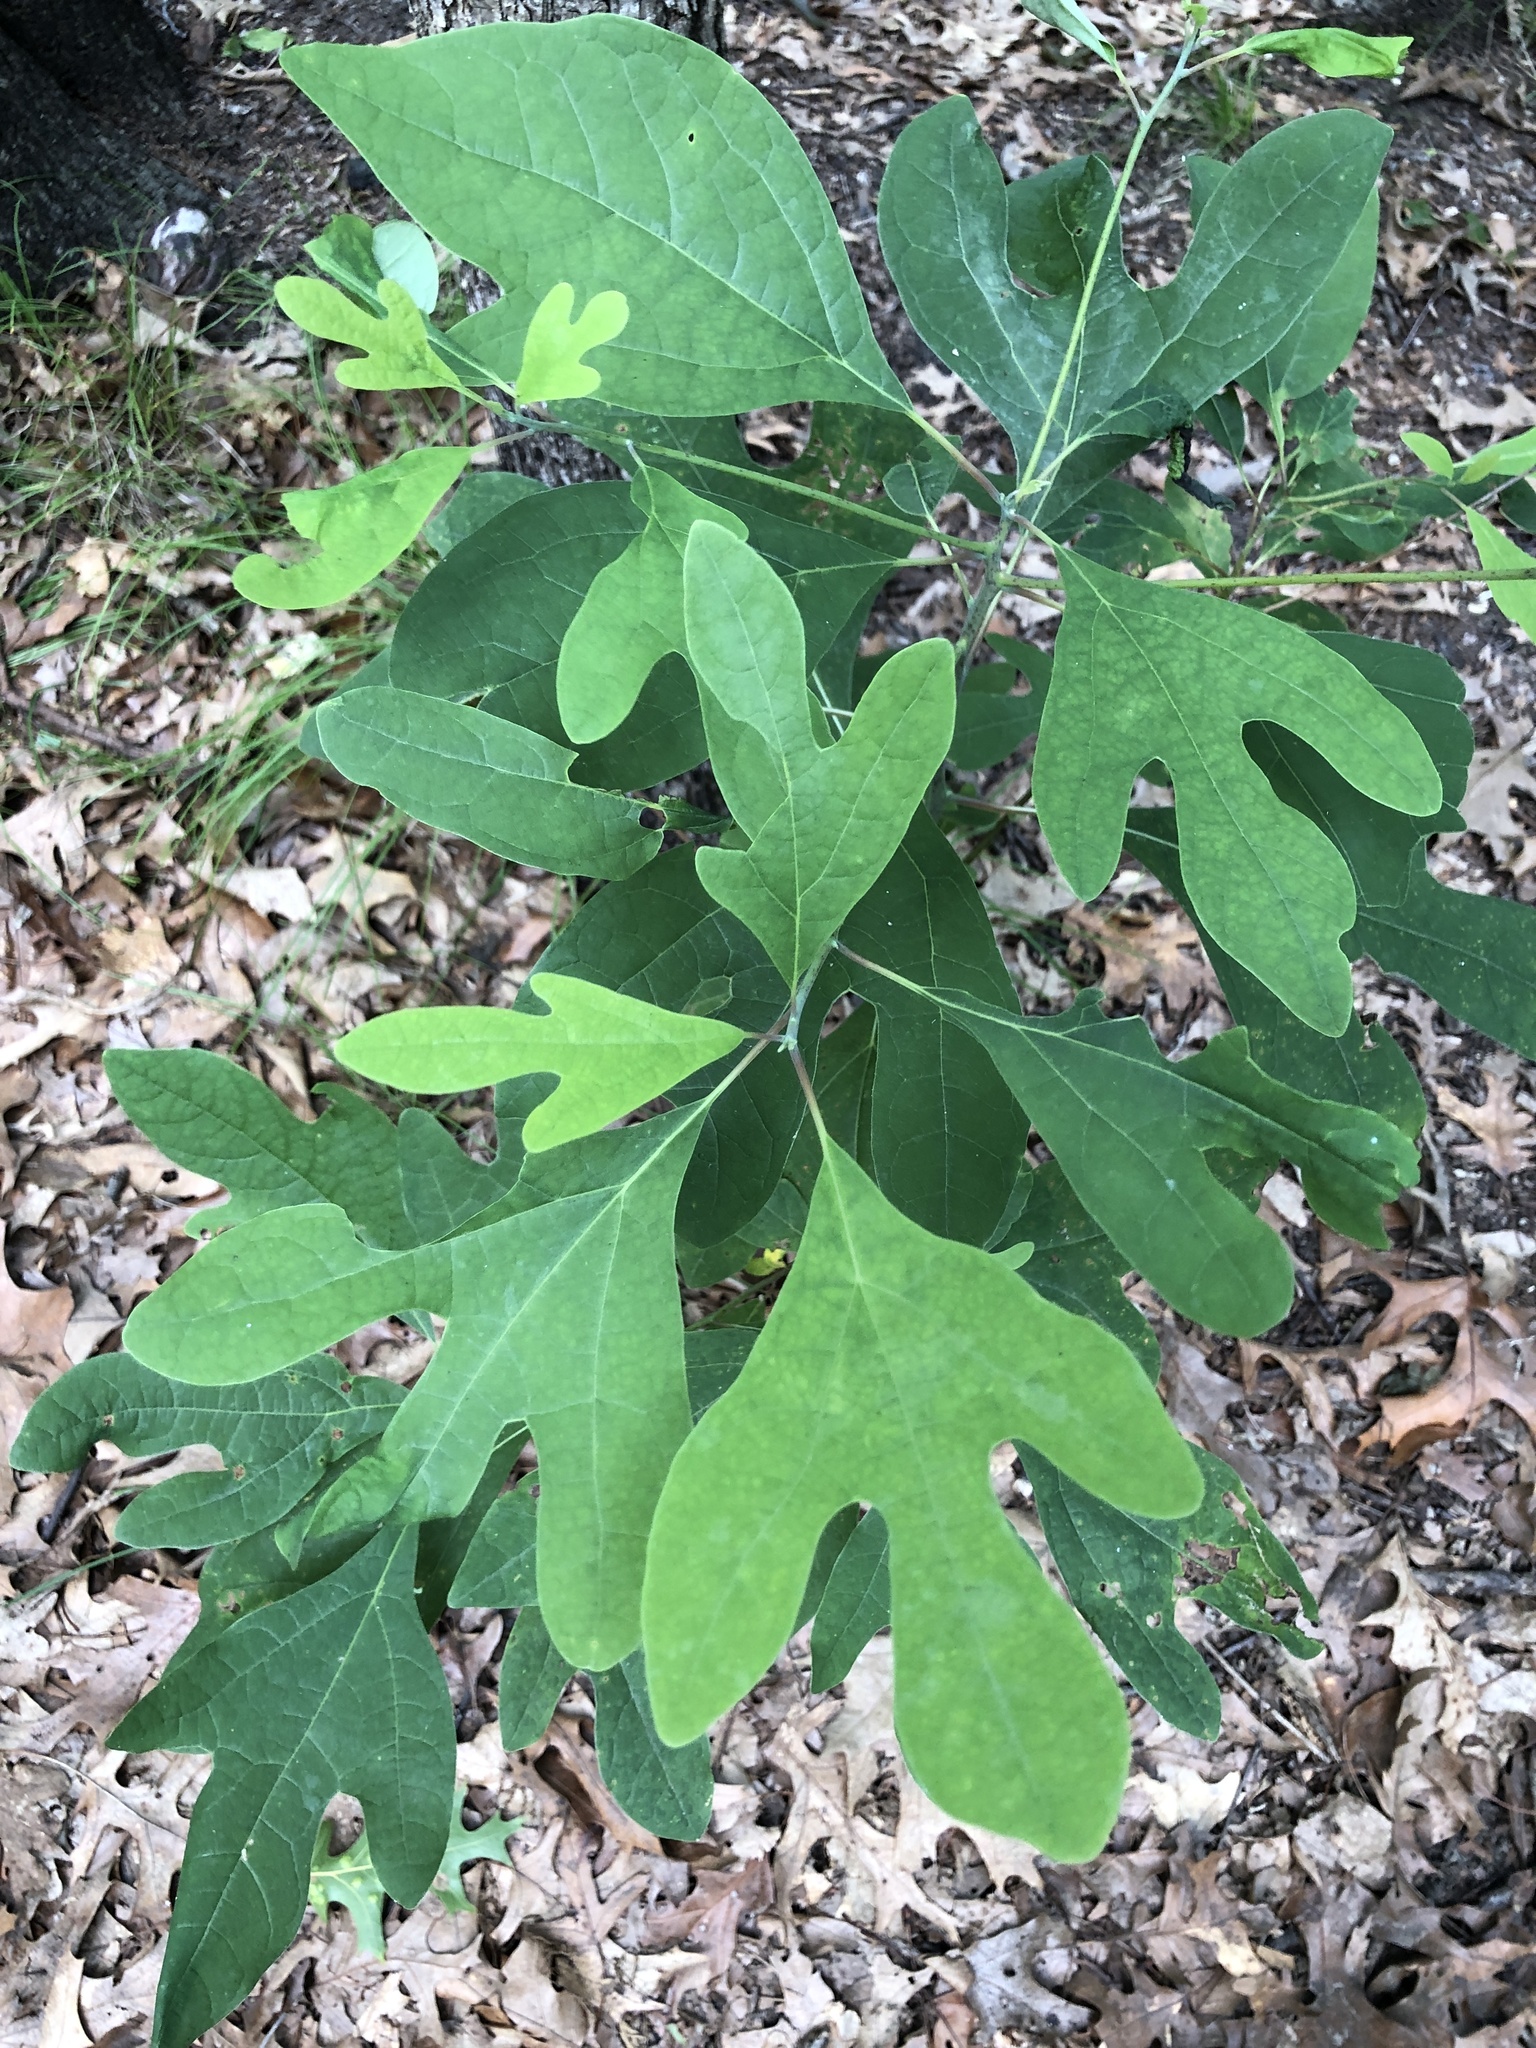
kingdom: Plantae
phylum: Tracheophyta
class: Magnoliopsida
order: Laurales
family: Lauraceae
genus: Sassafras
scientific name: Sassafras albidum
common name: Sassafras
